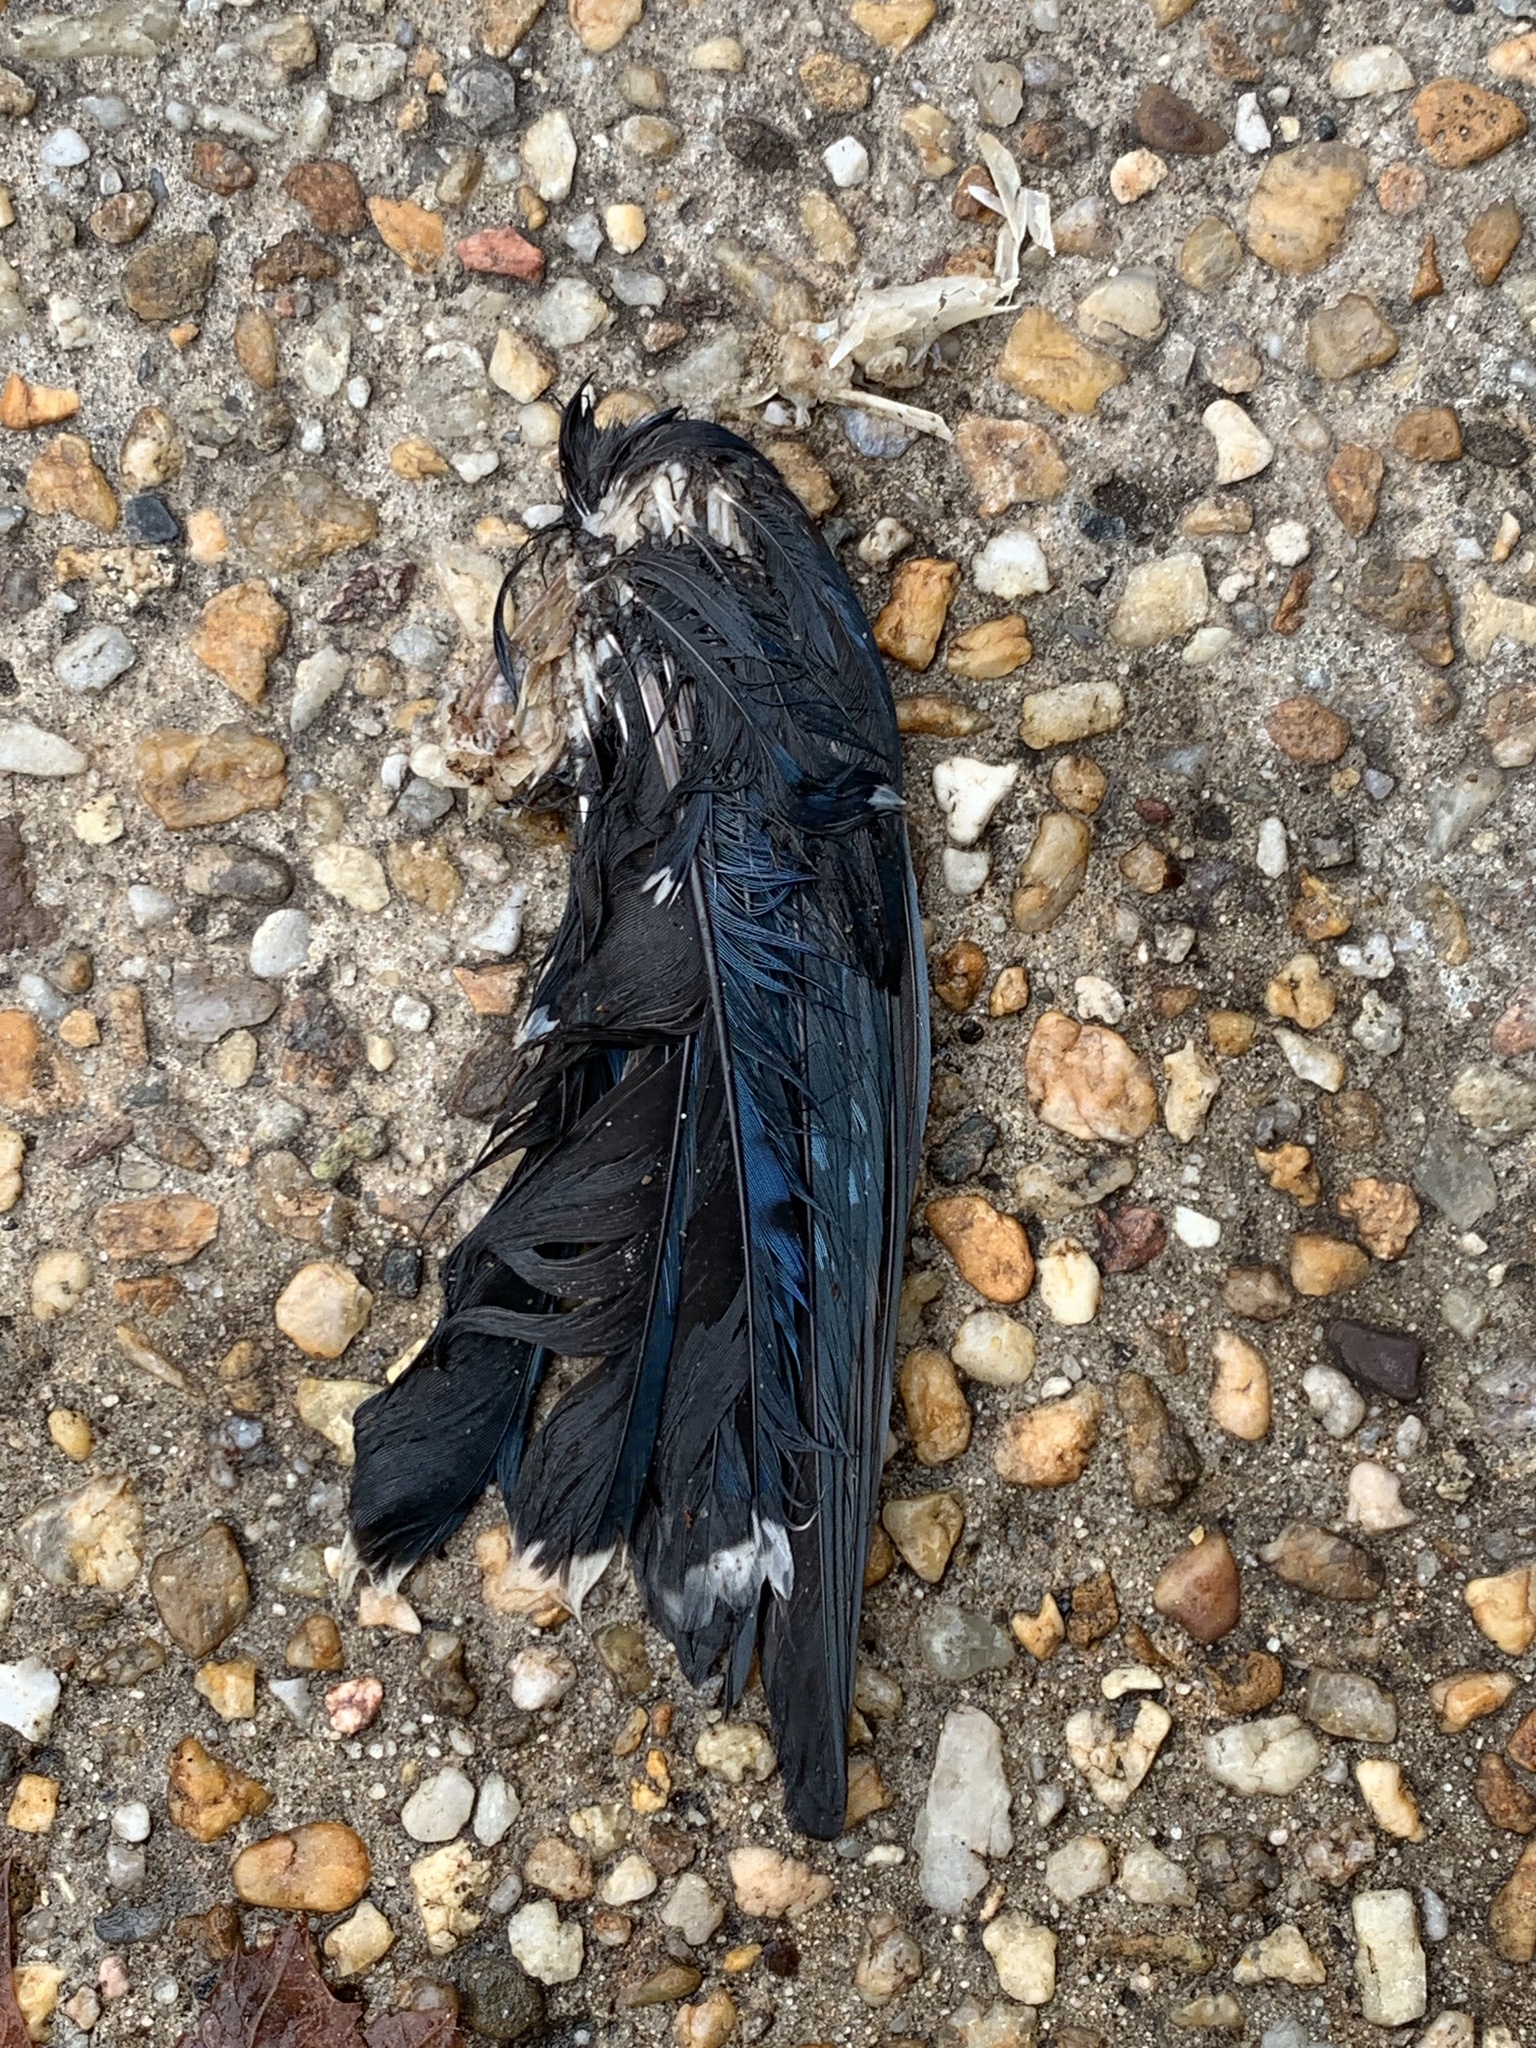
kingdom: Animalia
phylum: Chordata
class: Aves
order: Passeriformes
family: Corvidae
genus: Cyanocitta
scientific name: Cyanocitta cristata
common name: Blue jay
